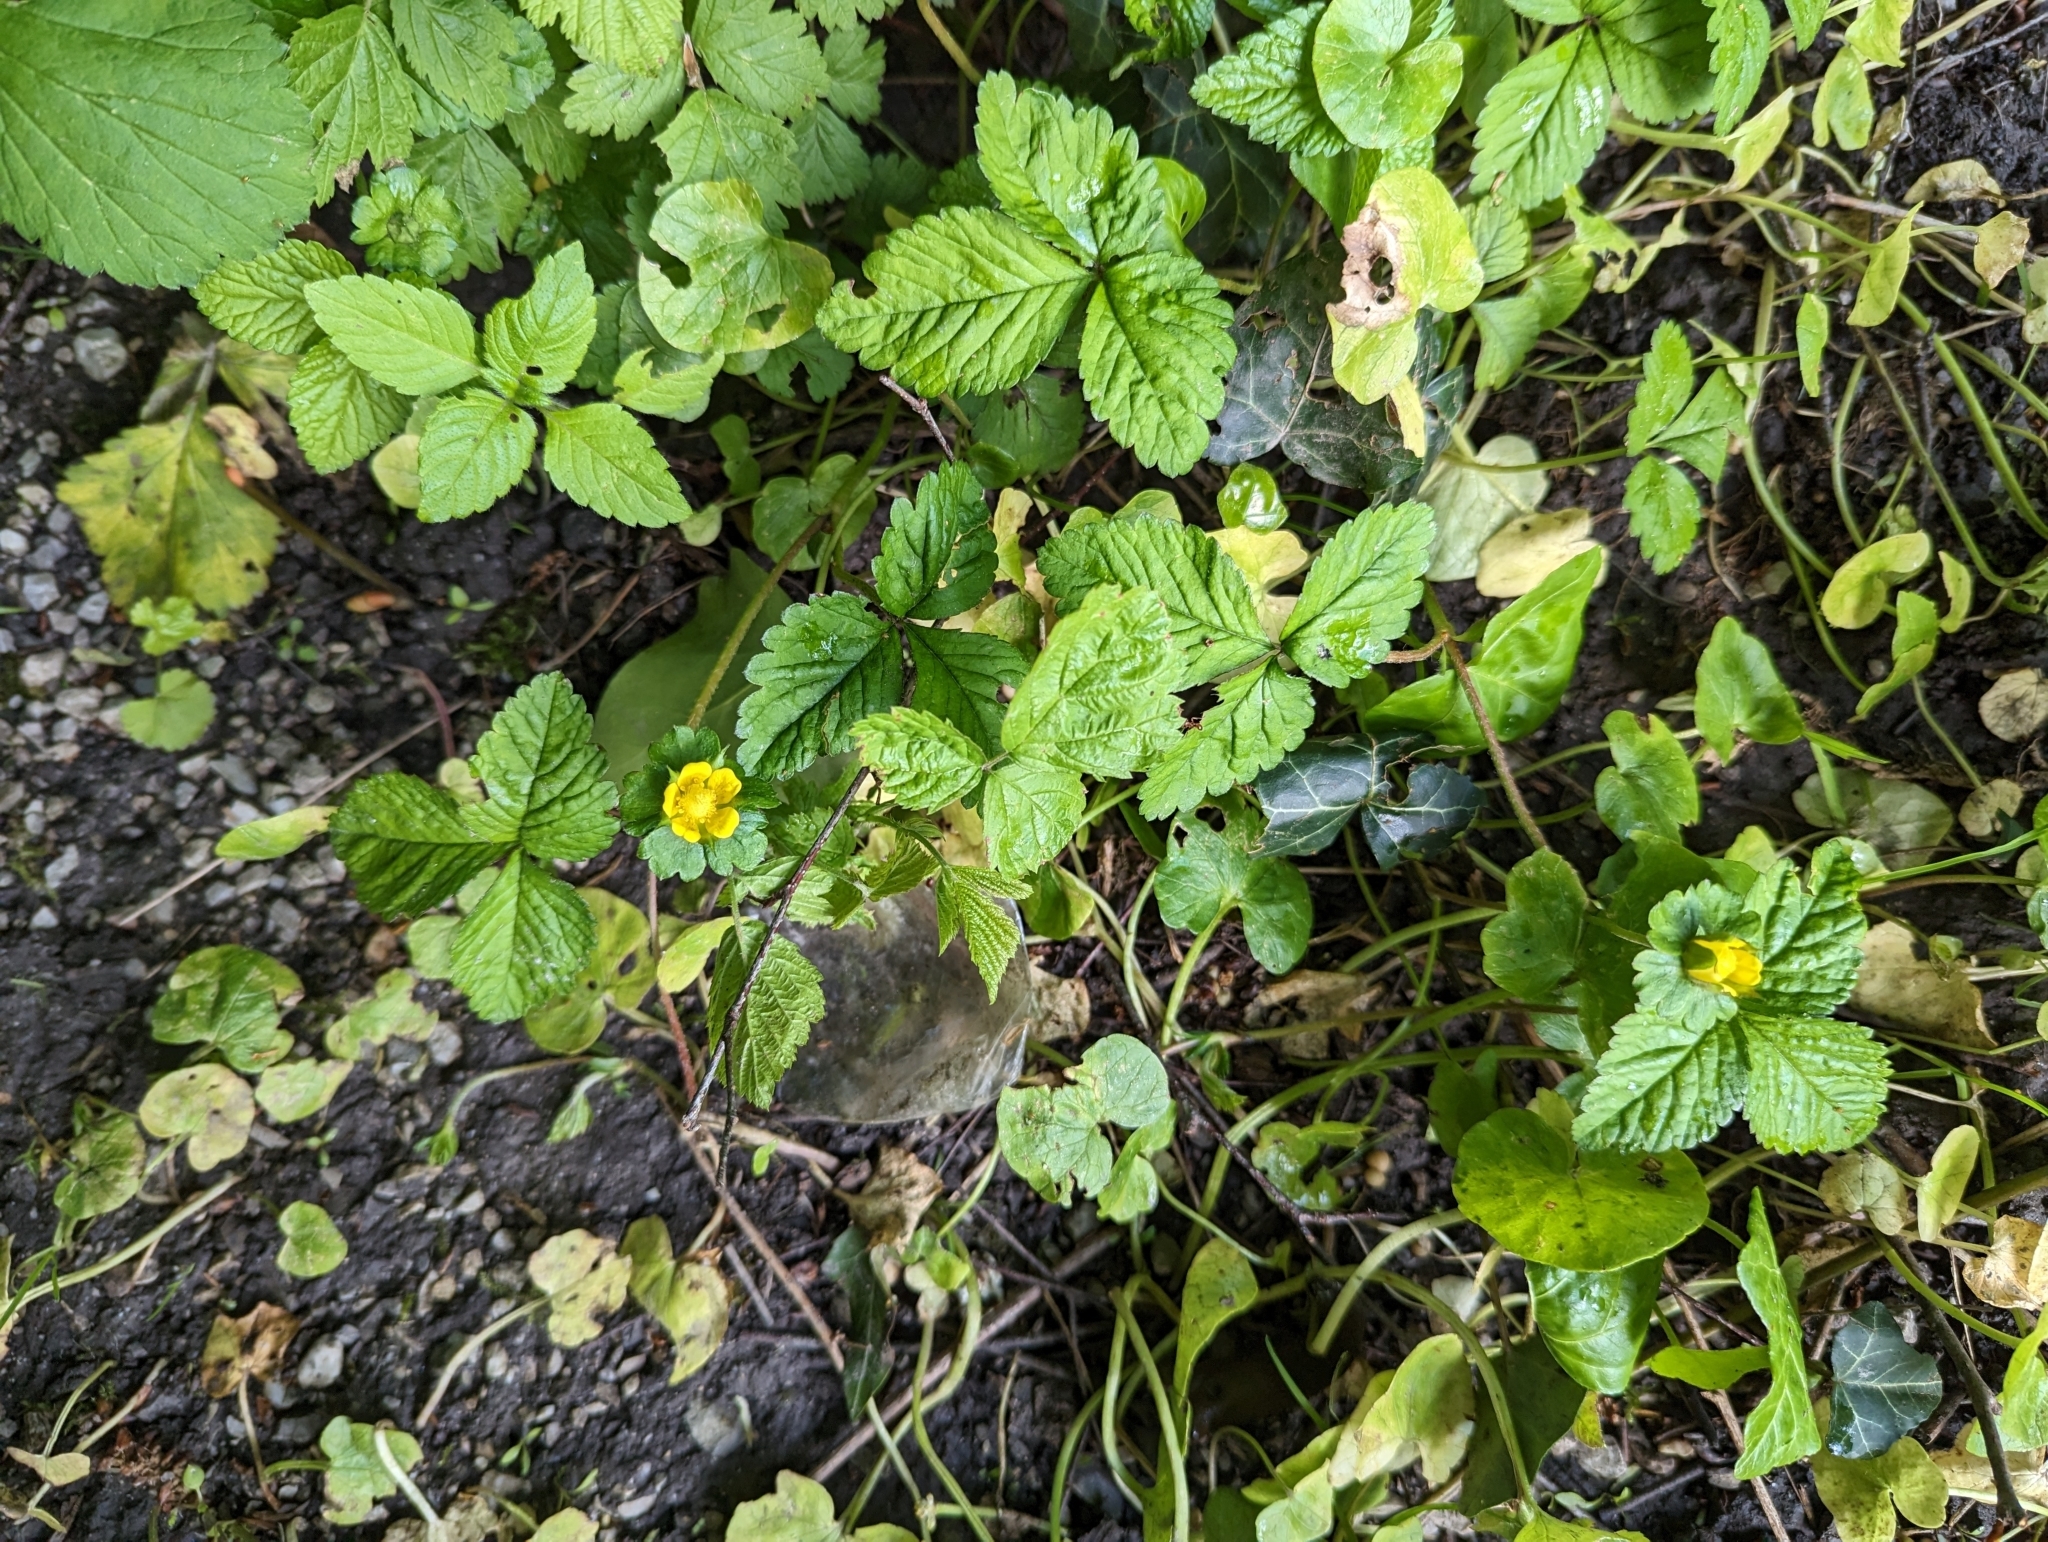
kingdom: Plantae
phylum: Tracheophyta
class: Magnoliopsida
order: Rosales
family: Rosaceae
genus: Potentilla
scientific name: Potentilla indica
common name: Yellow-flowered strawberry
